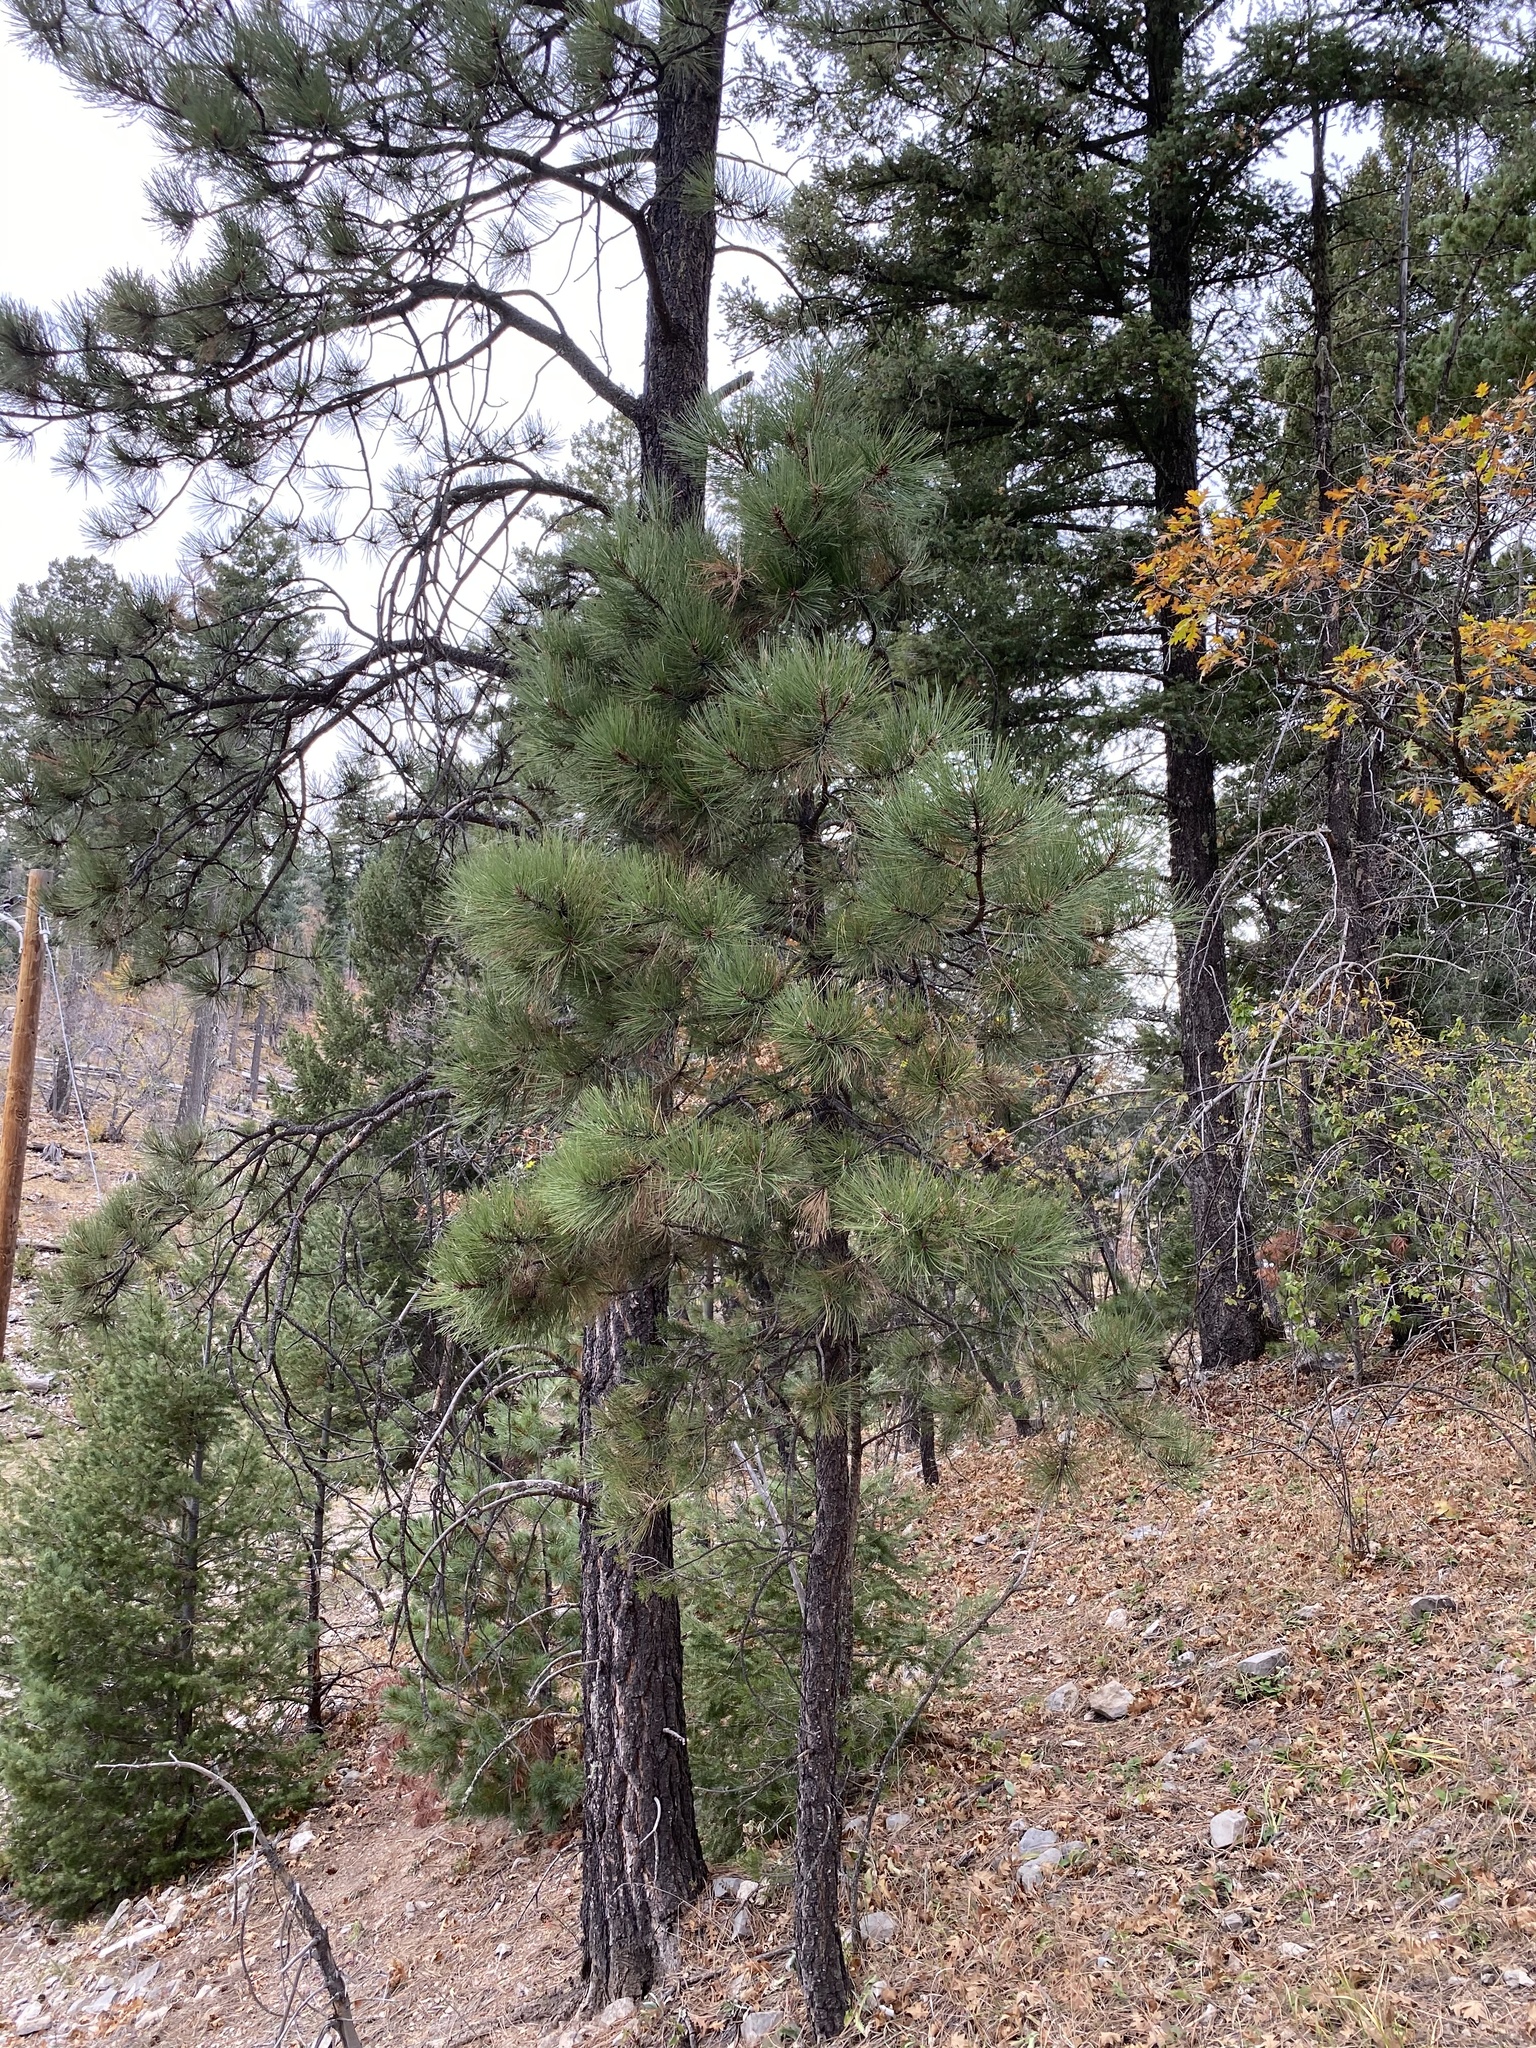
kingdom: Plantae
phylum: Tracheophyta
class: Pinopsida
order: Pinales
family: Pinaceae
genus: Pinus
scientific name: Pinus ponderosa
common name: Western yellow-pine
